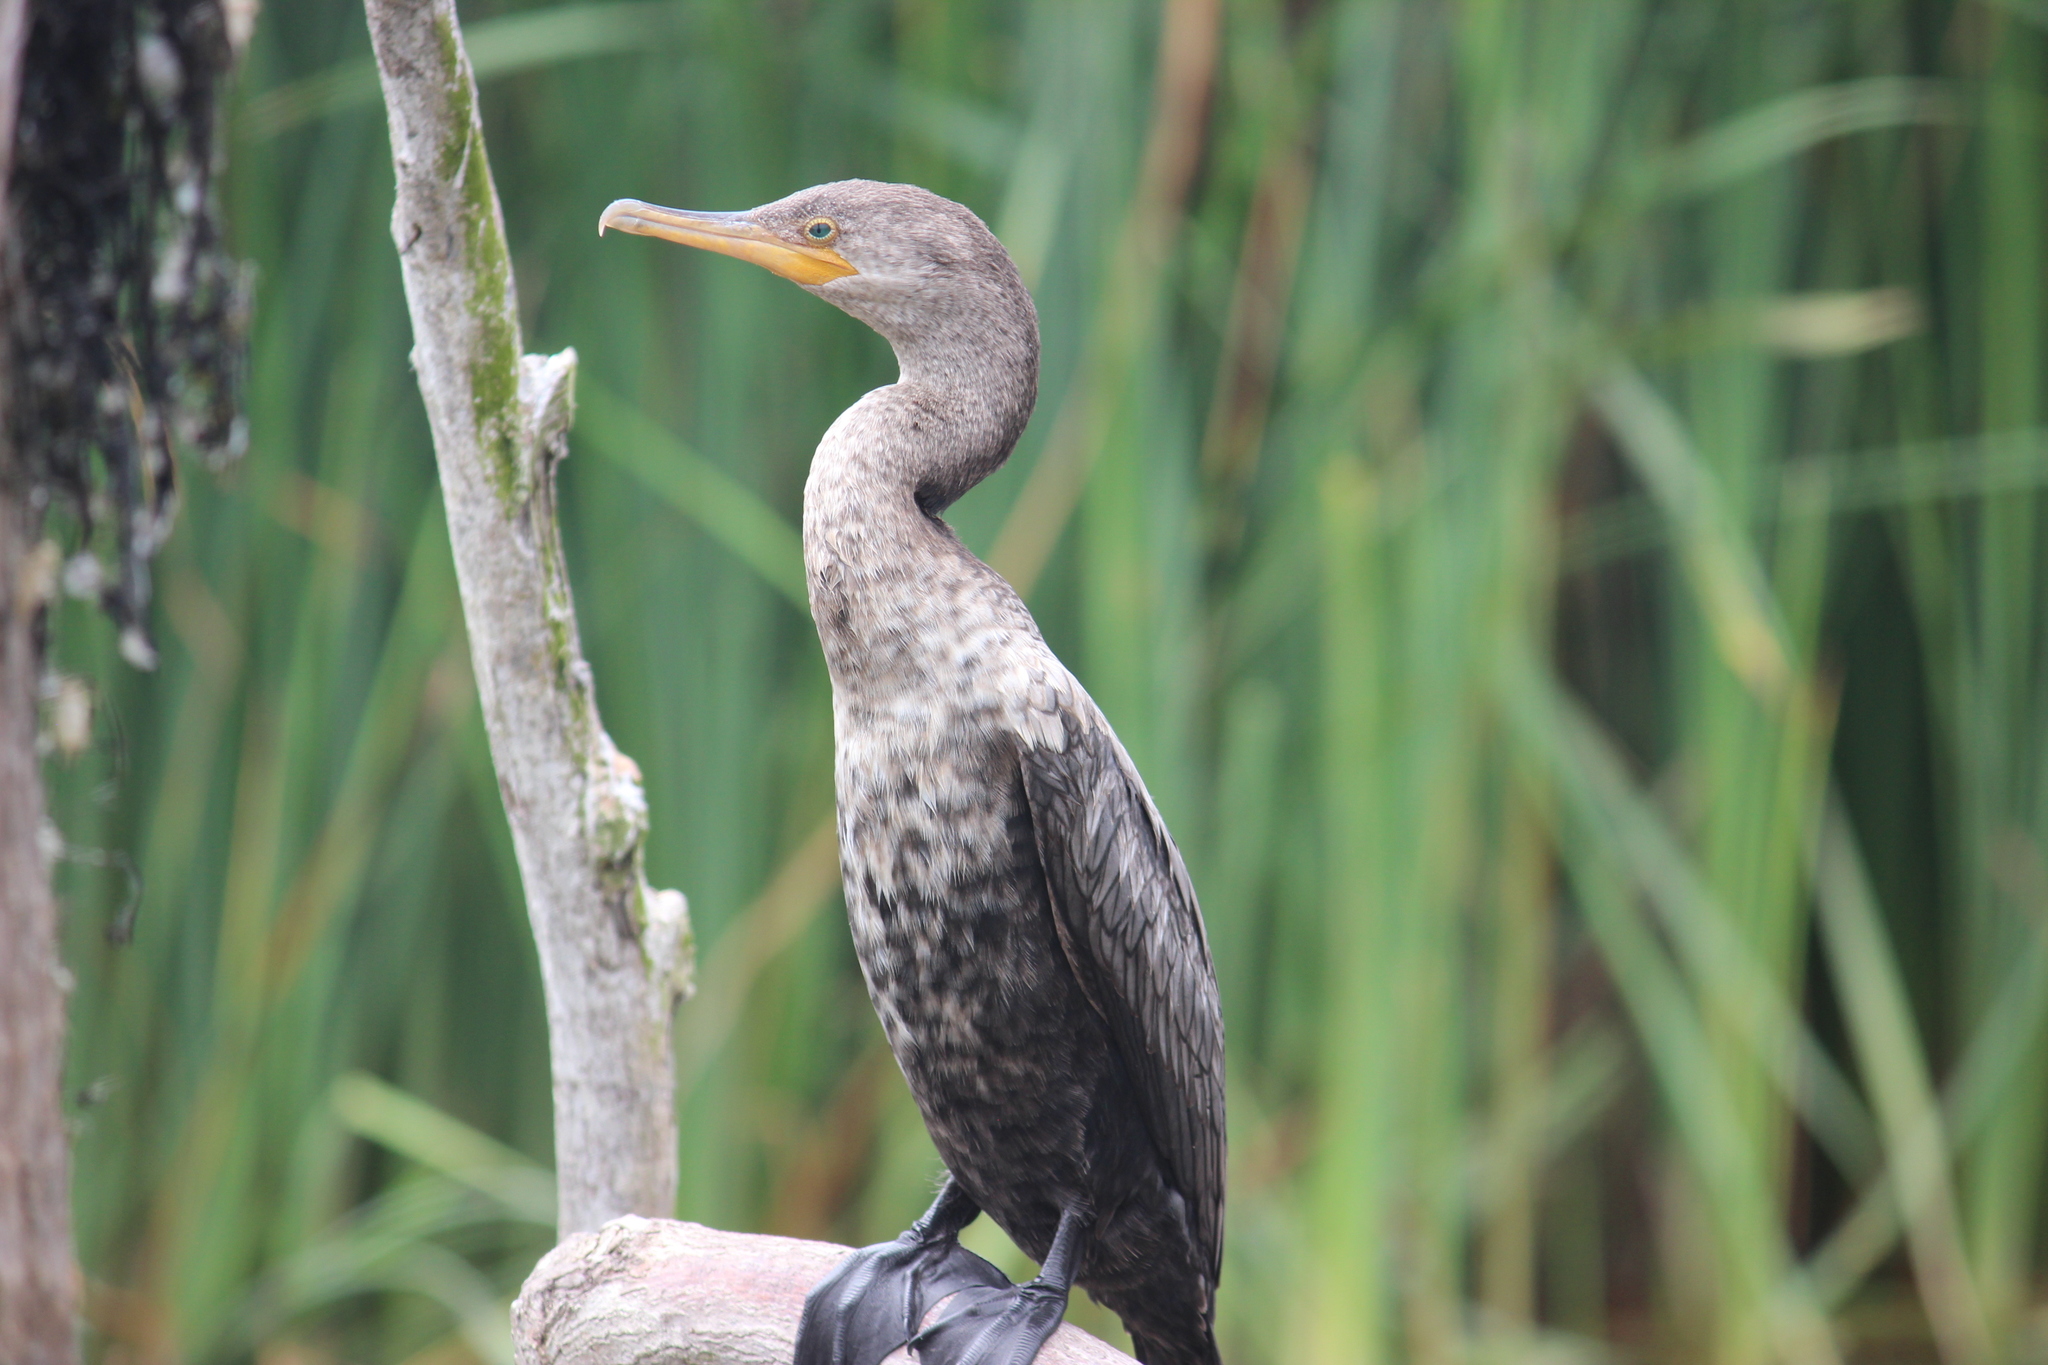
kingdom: Animalia
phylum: Chordata
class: Aves
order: Suliformes
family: Phalacrocoracidae
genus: Phalacrocorax
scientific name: Phalacrocorax brasilianus
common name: Neotropic cormorant
